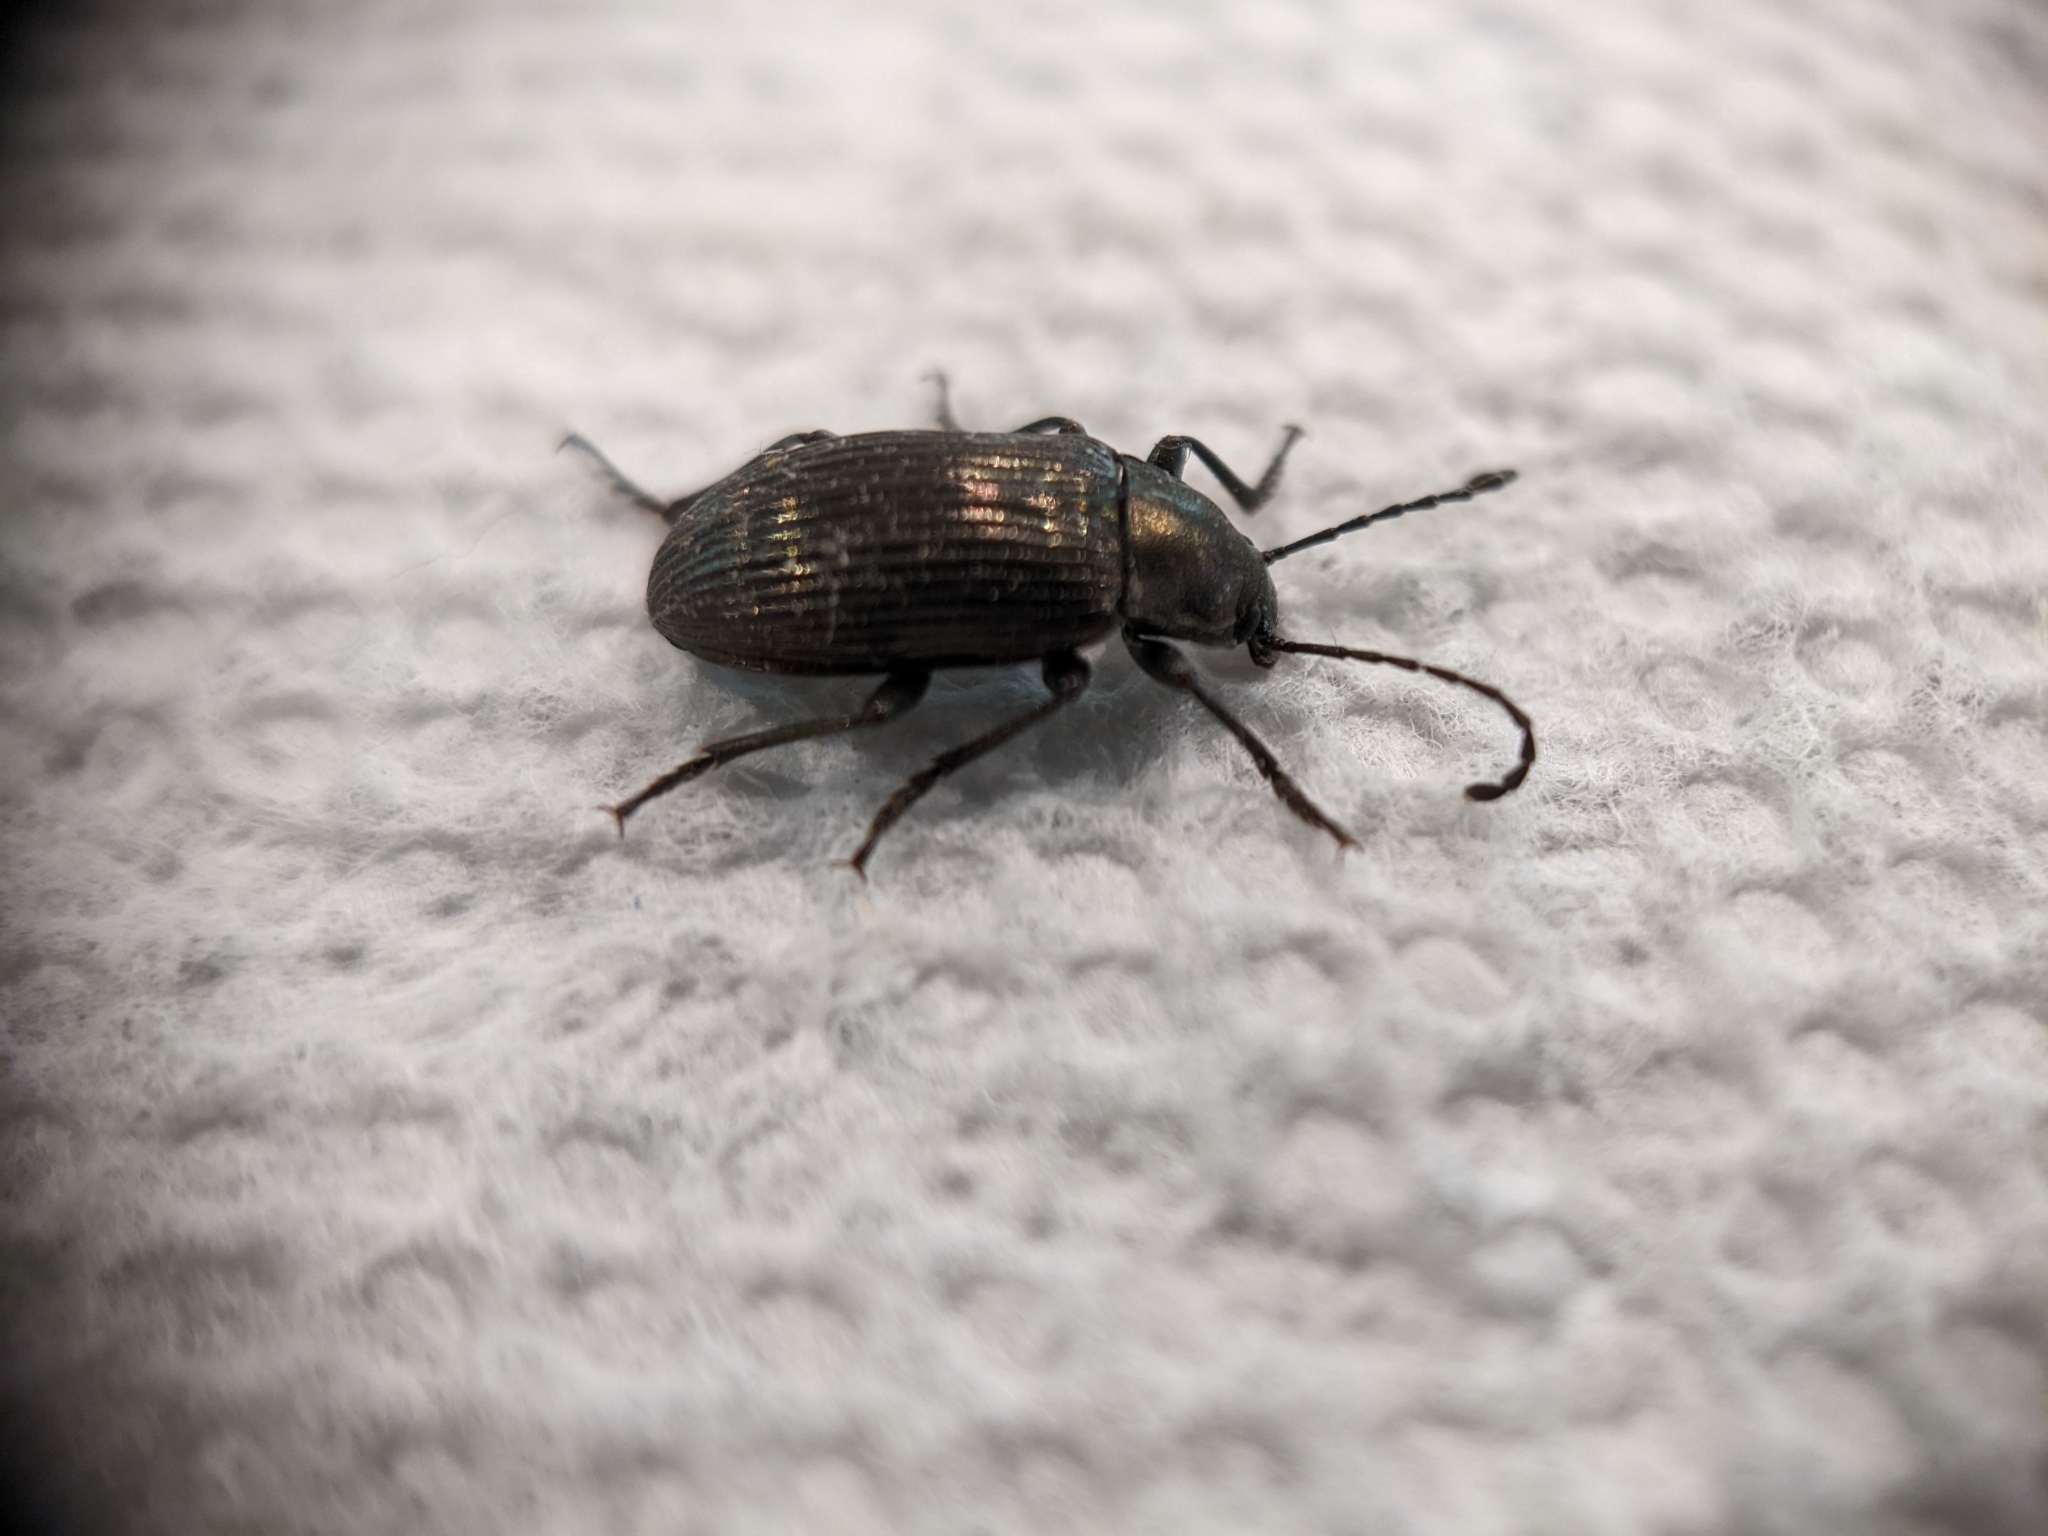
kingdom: Animalia
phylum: Arthropoda
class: Insecta
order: Coleoptera
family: Tenebrionidae
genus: Tarpela
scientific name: Tarpela venusta
